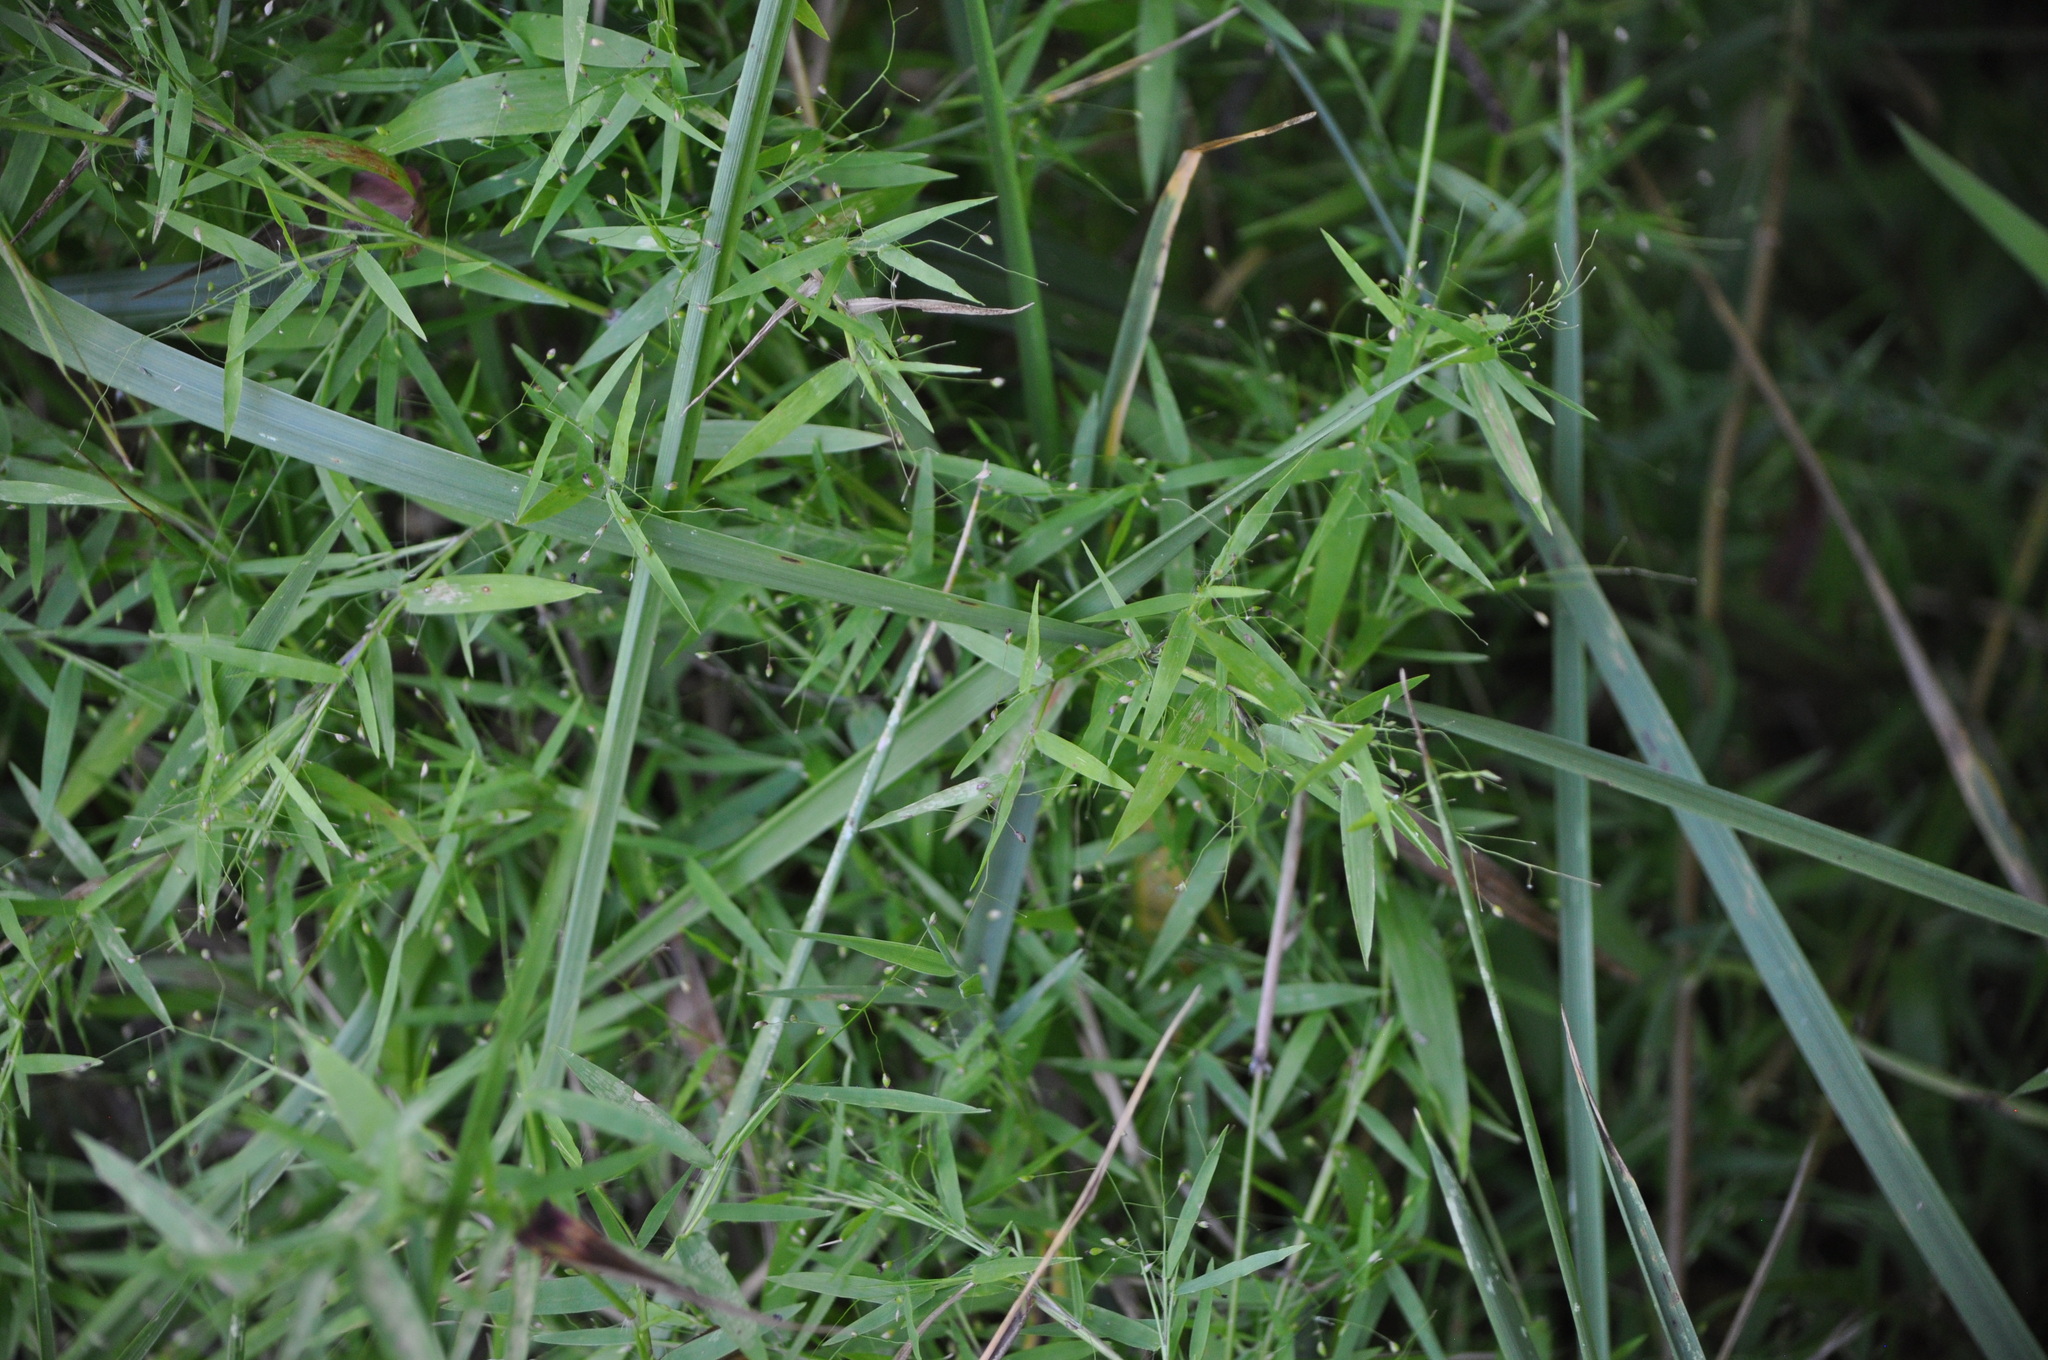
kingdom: Plantae
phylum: Tracheophyta
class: Liliopsida
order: Poales
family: Poaceae
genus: Dichanthelium
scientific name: Dichanthelium microcarpon
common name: Small-fruited witchgrass
